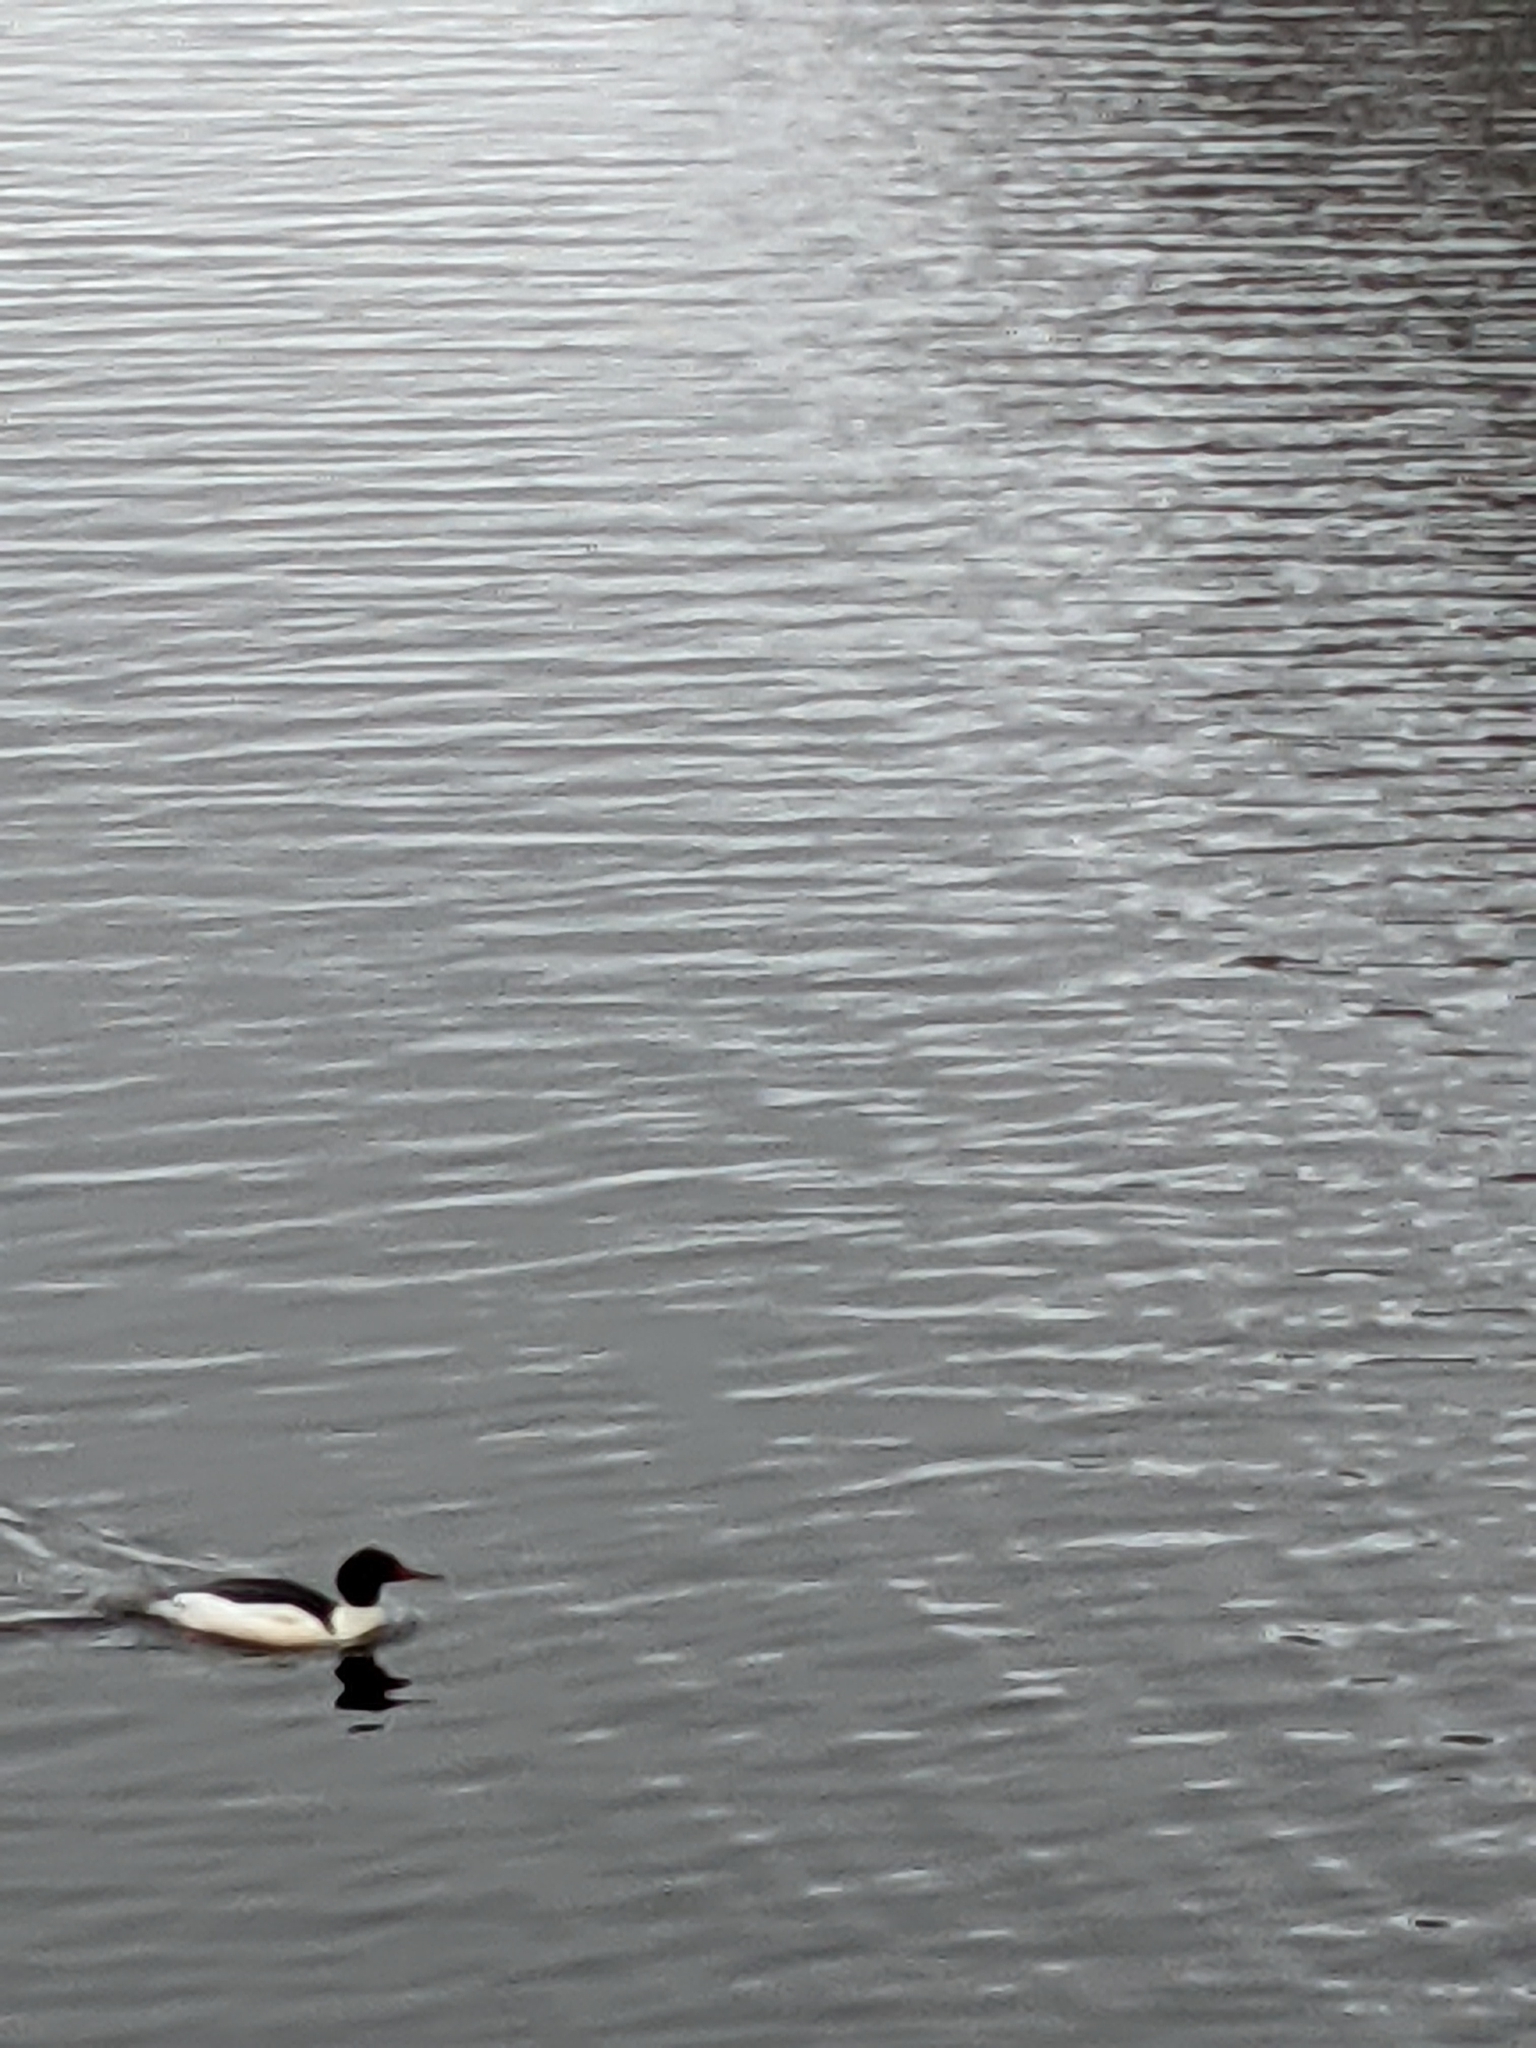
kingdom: Animalia
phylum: Chordata
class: Aves
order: Anseriformes
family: Anatidae
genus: Mergus
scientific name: Mergus merganser
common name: Common merganser
